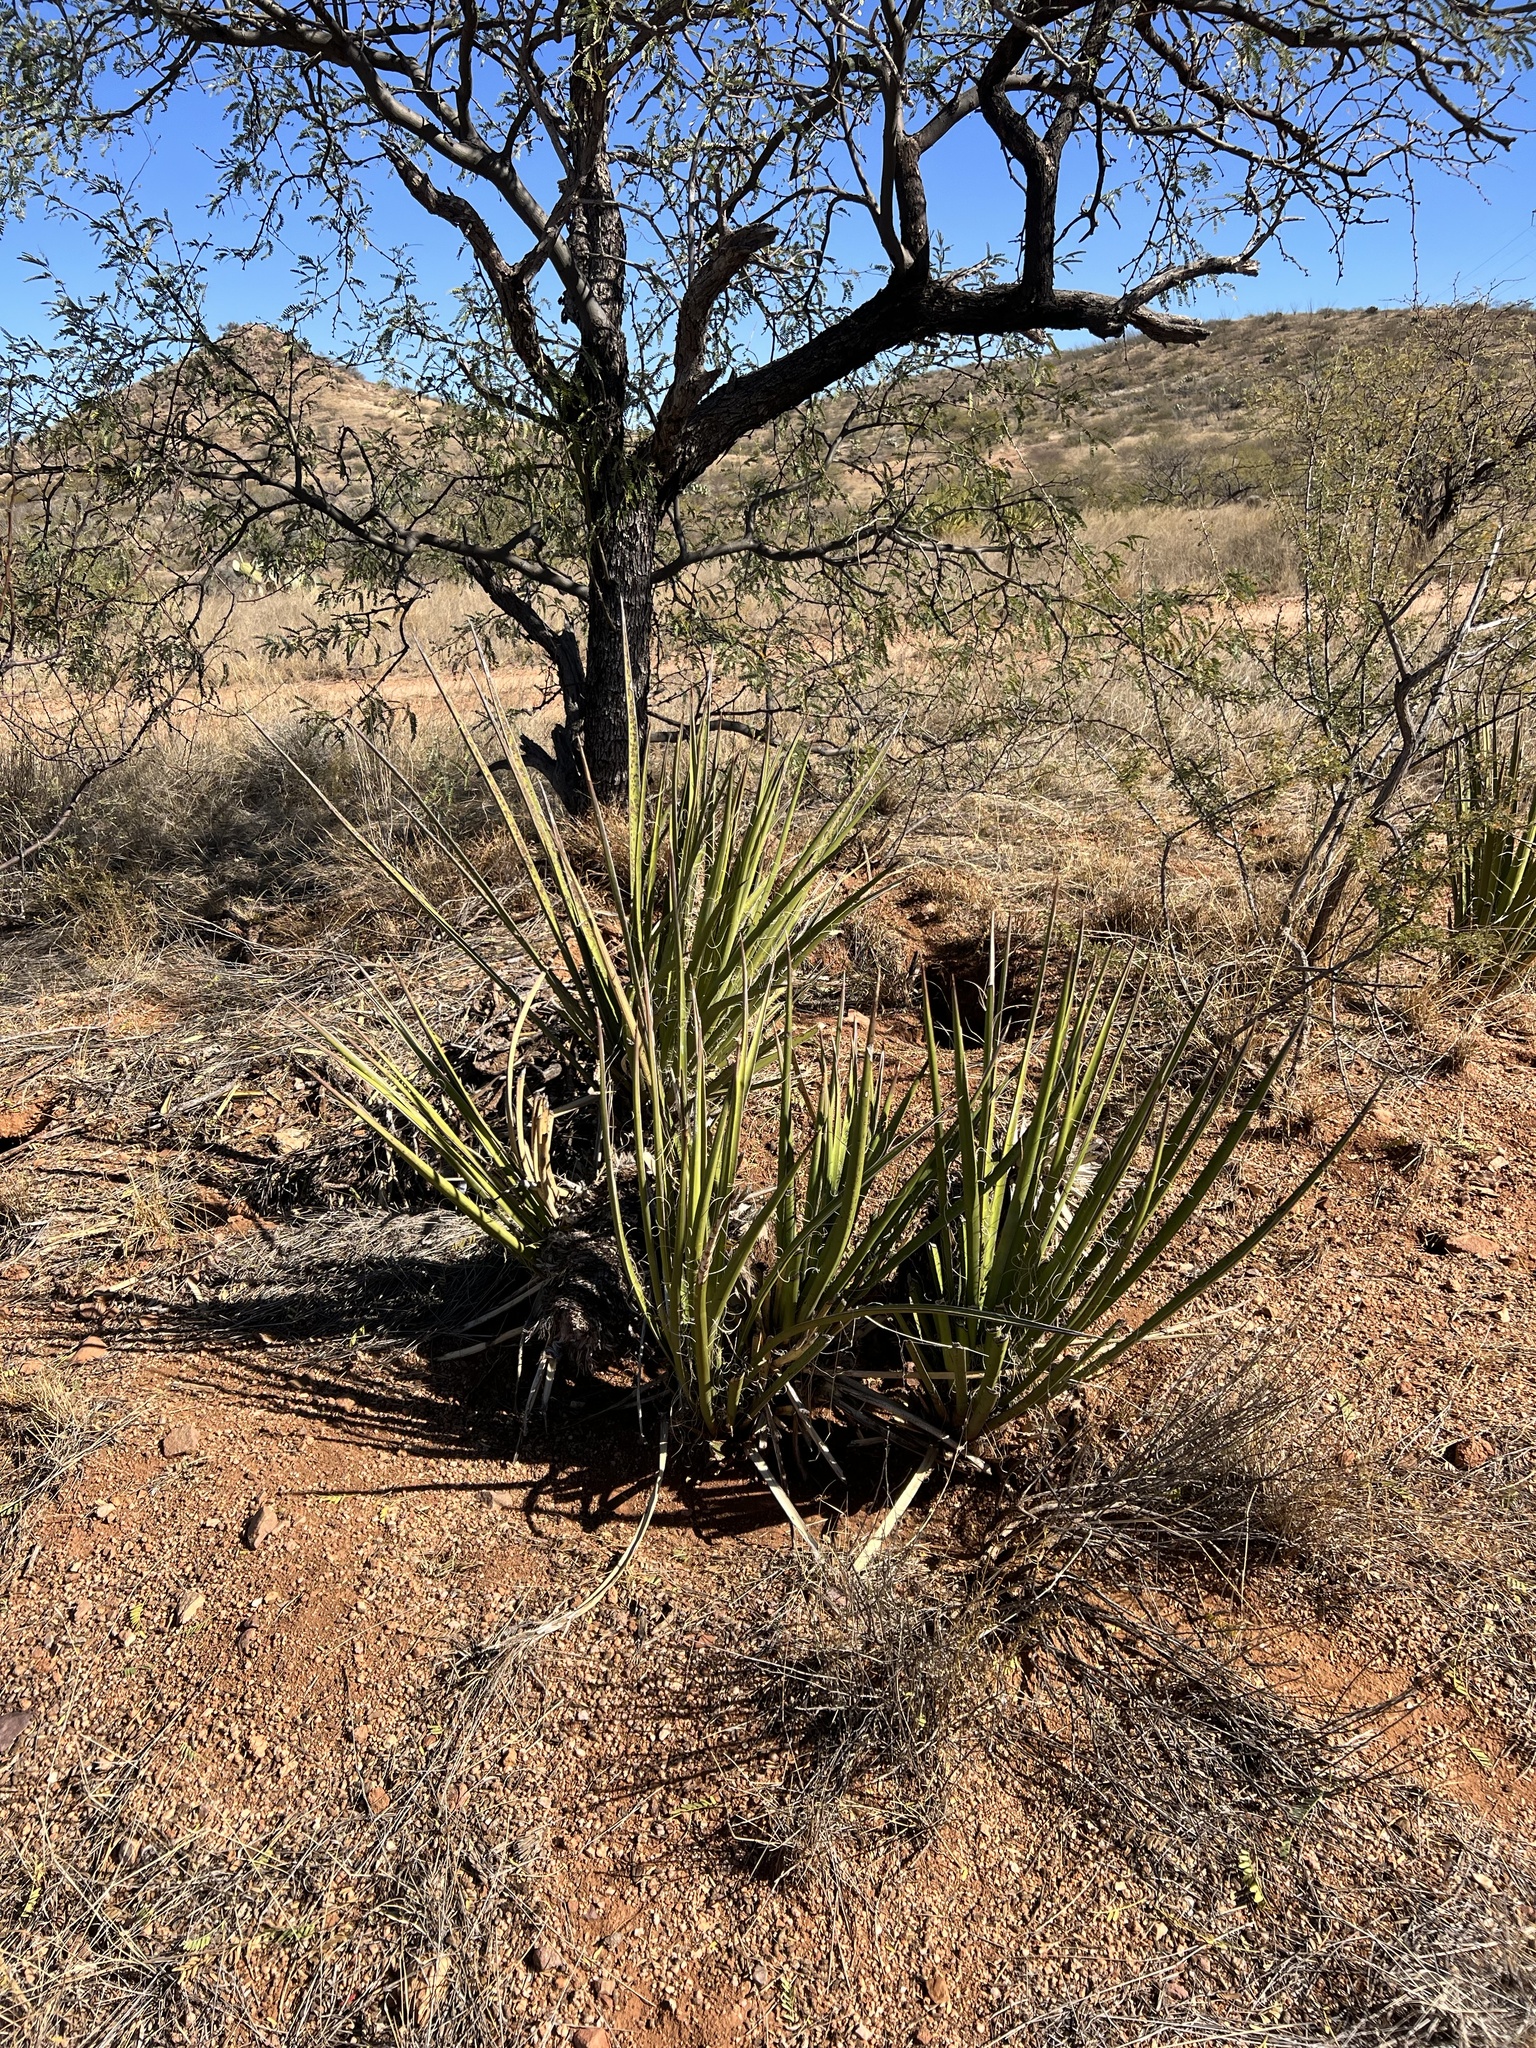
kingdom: Plantae
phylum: Tracheophyta
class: Liliopsida
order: Asparagales
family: Asparagaceae
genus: Yucca
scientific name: Yucca baccata
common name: Banana yucca
